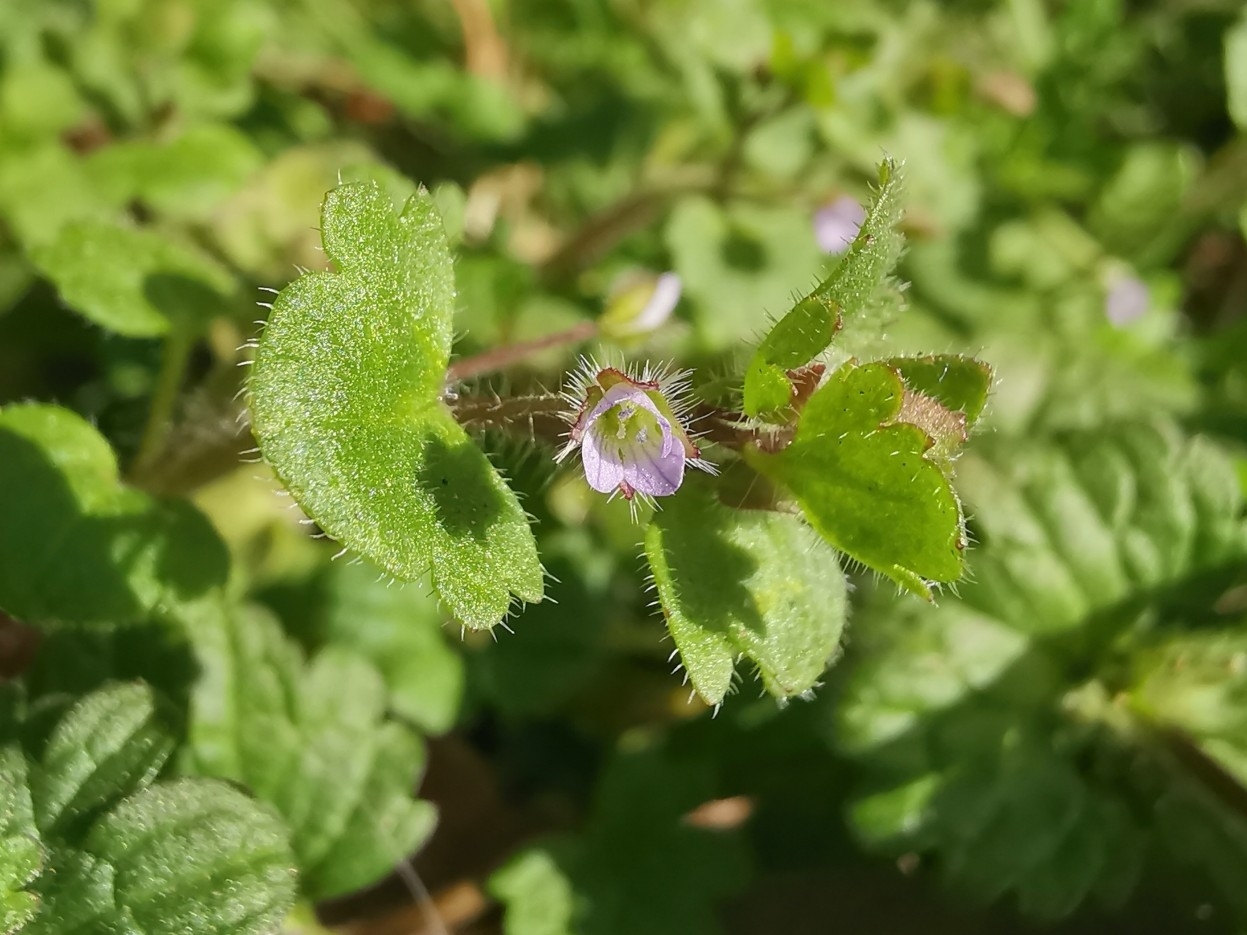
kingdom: Plantae
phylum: Tracheophyta
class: Magnoliopsida
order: Lamiales
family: Plantaginaceae
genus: Veronica
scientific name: Veronica sublobata
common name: False ivy-leaved speedwell
